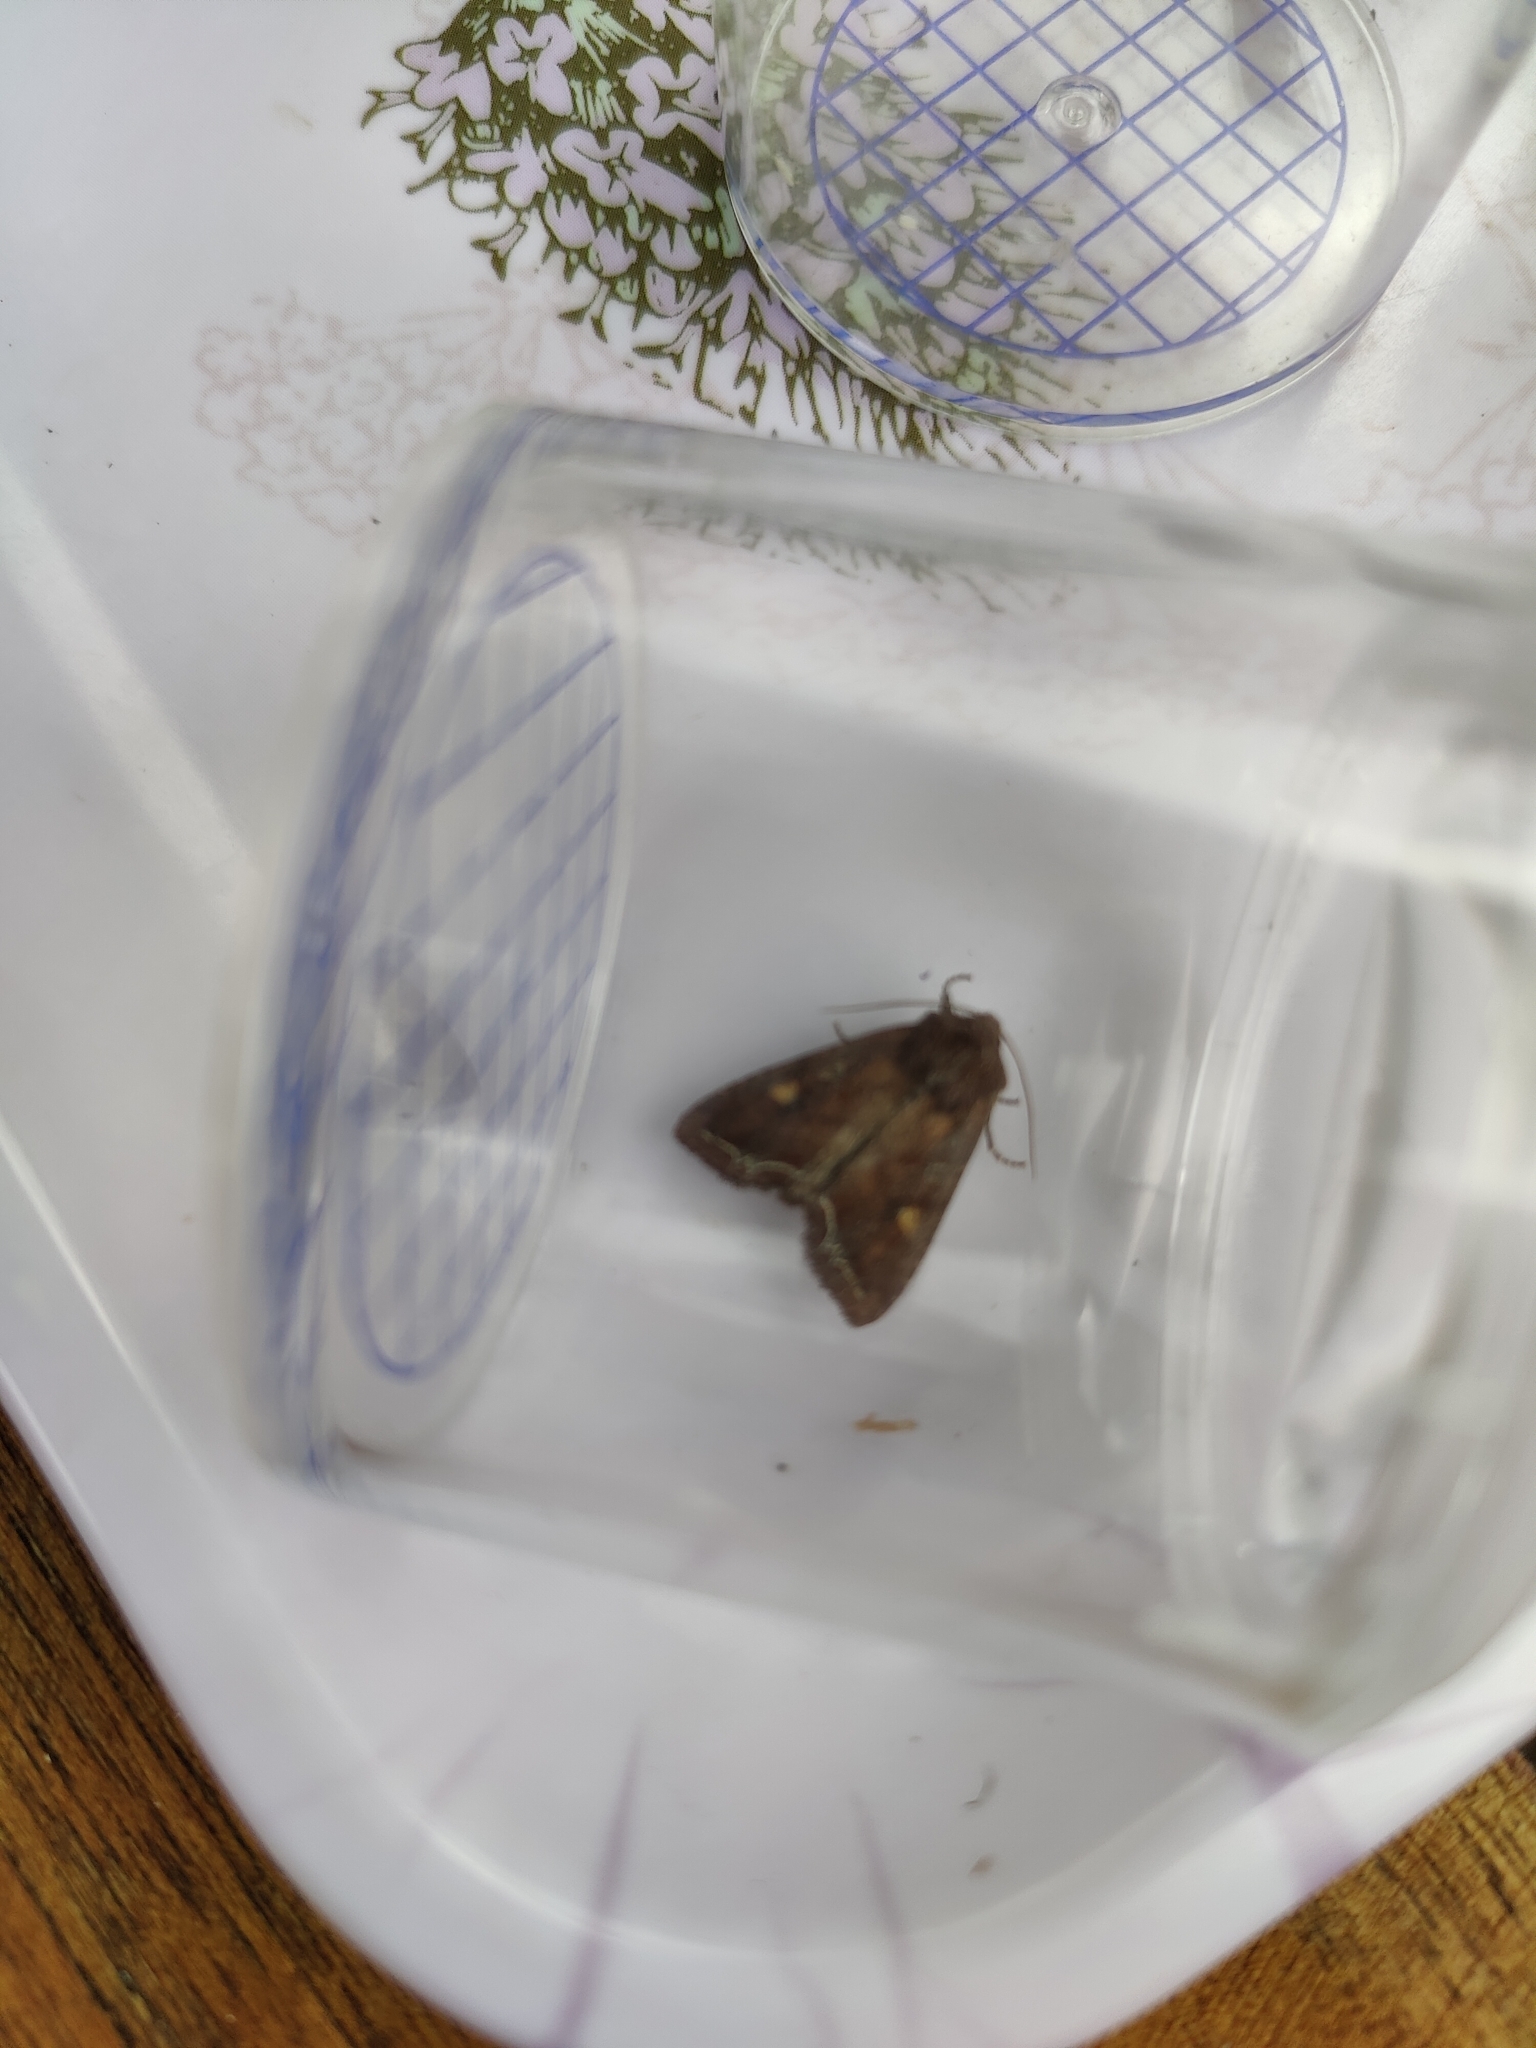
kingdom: Animalia
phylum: Arthropoda
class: Insecta
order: Lepidoptera
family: Noctuidae
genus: Lacanobia
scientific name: Lacanobia oleracea
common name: Bright-line brown-eye
